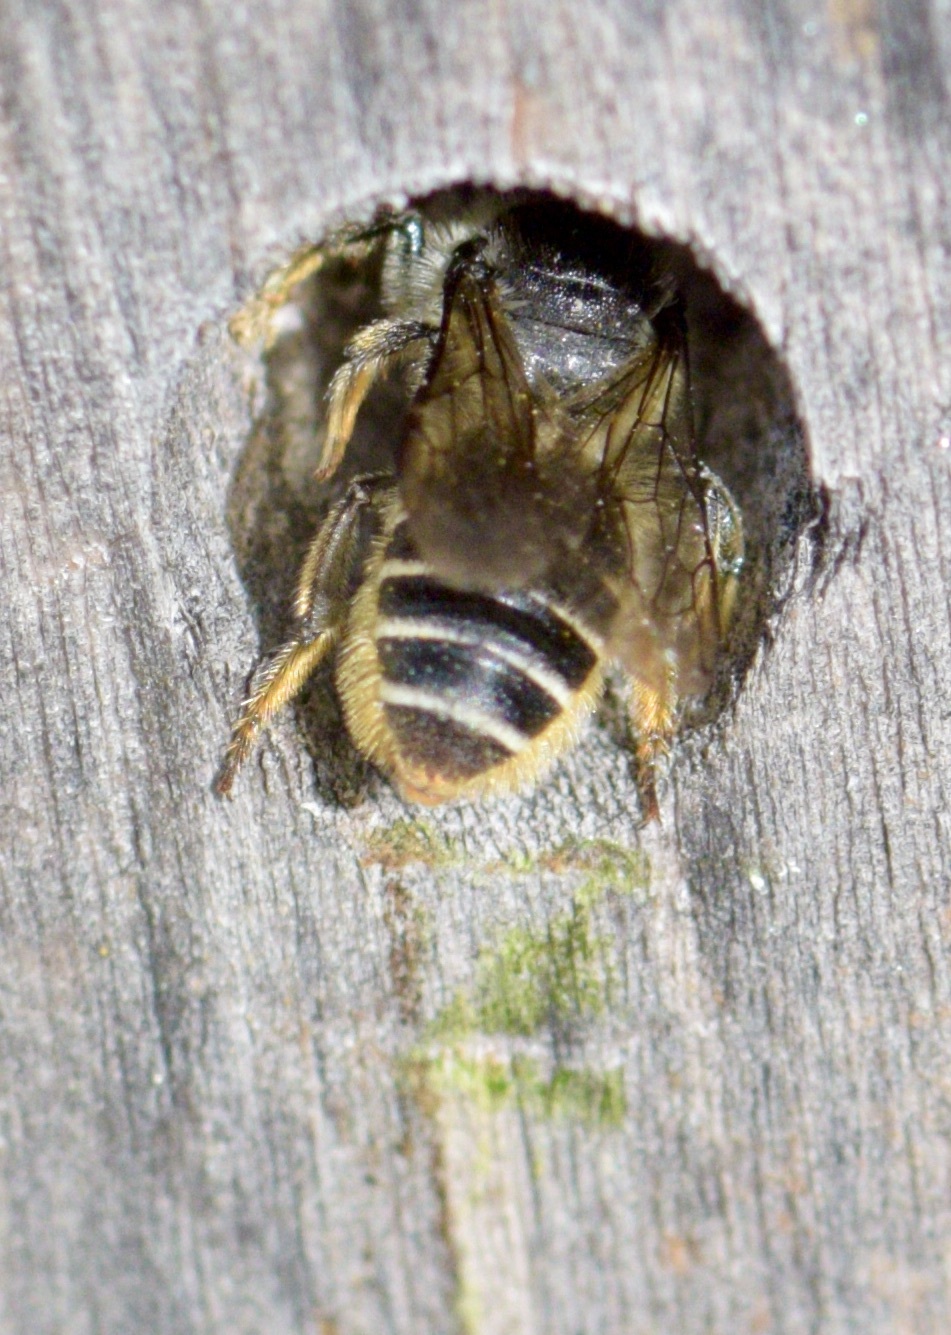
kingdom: Animalia
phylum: Arthropoda
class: Insecta
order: Hymenoptera
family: Megachilidae
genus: Megachile
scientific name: Megachile relativa
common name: Golden-tailed leafcutter
